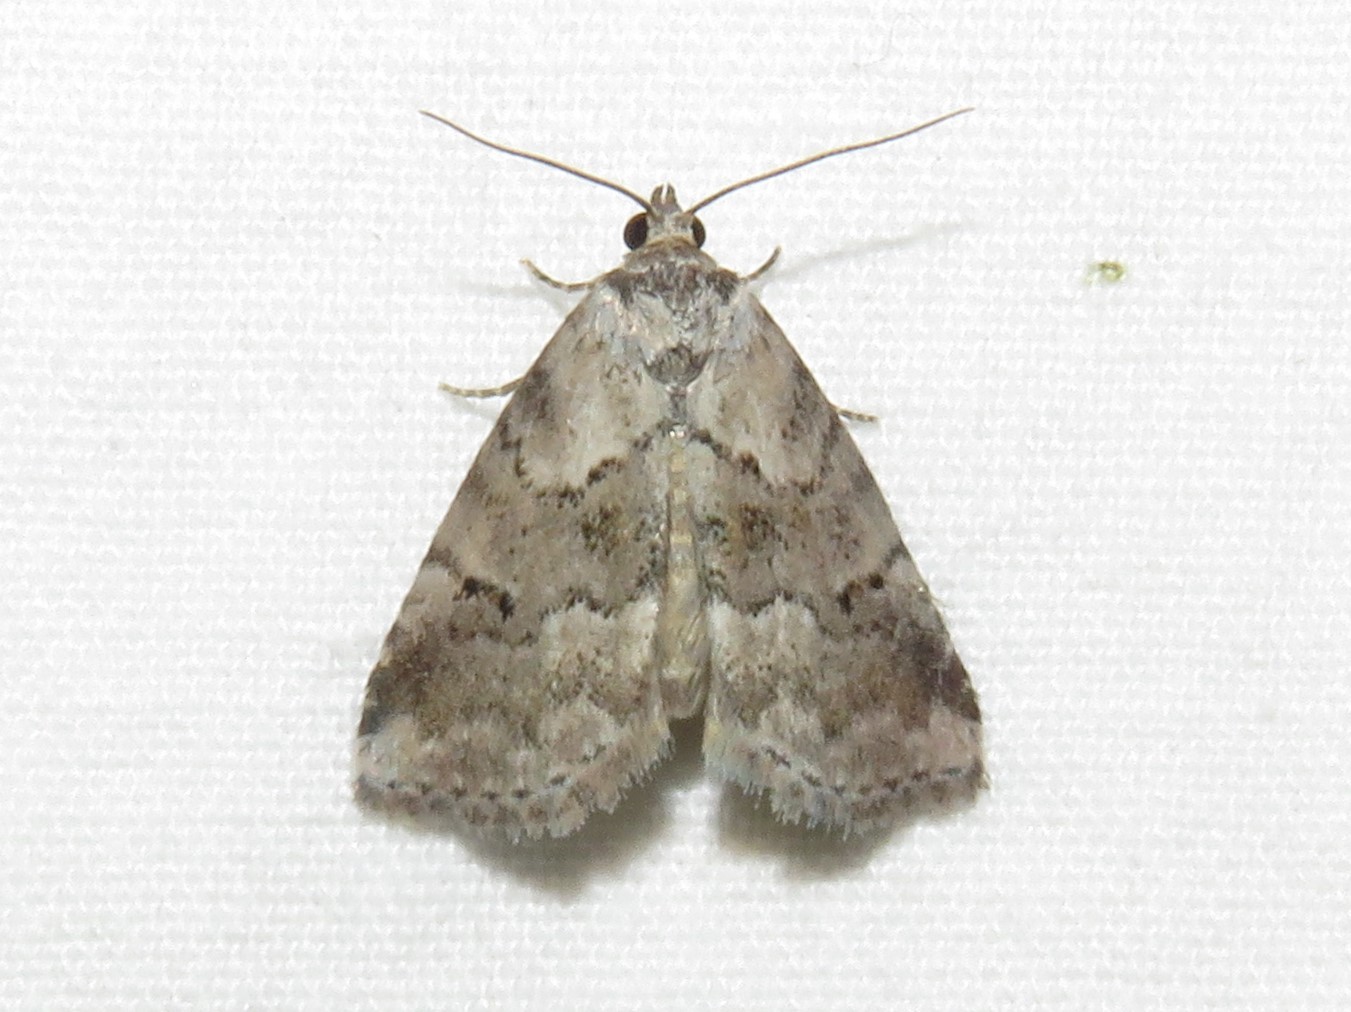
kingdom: Animalia
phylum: Arthropoda
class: Insecta
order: Lepidoptera
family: Erebidae
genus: Hyperstrotia
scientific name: Hyperstrotia nana
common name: White-lined graylet
